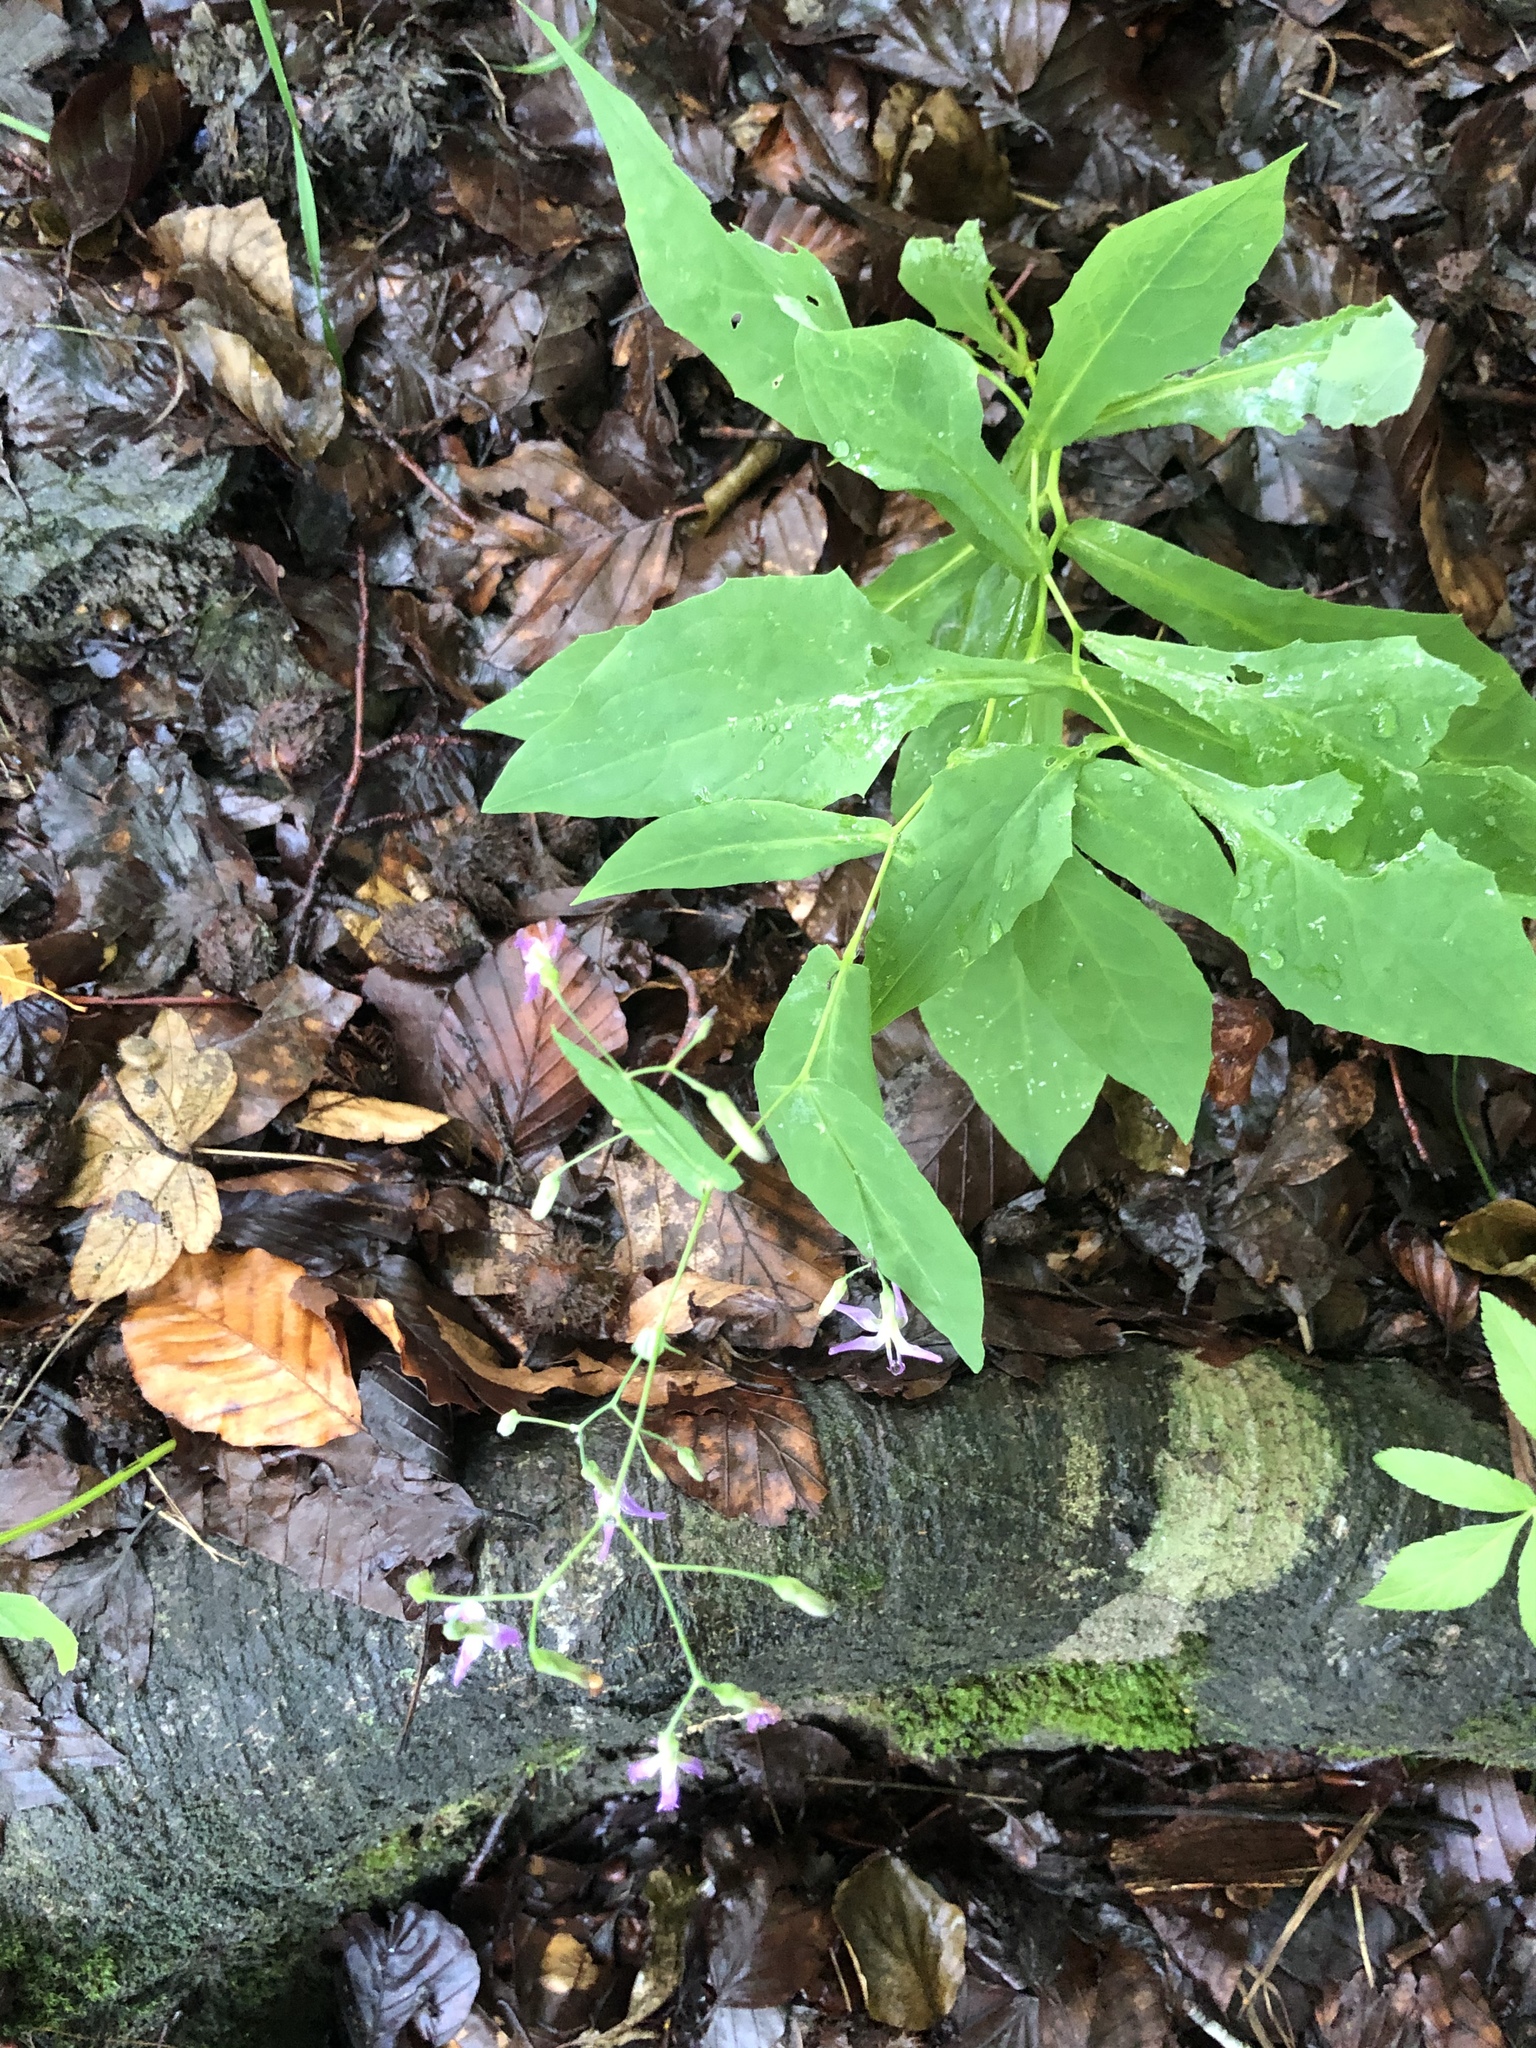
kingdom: Plantae
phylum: Tracheophyta
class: Magnoliopsida
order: Asterales
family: Asteraceae
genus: Prenanthes
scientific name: Prenanthes purpurea
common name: Purple lettuce
